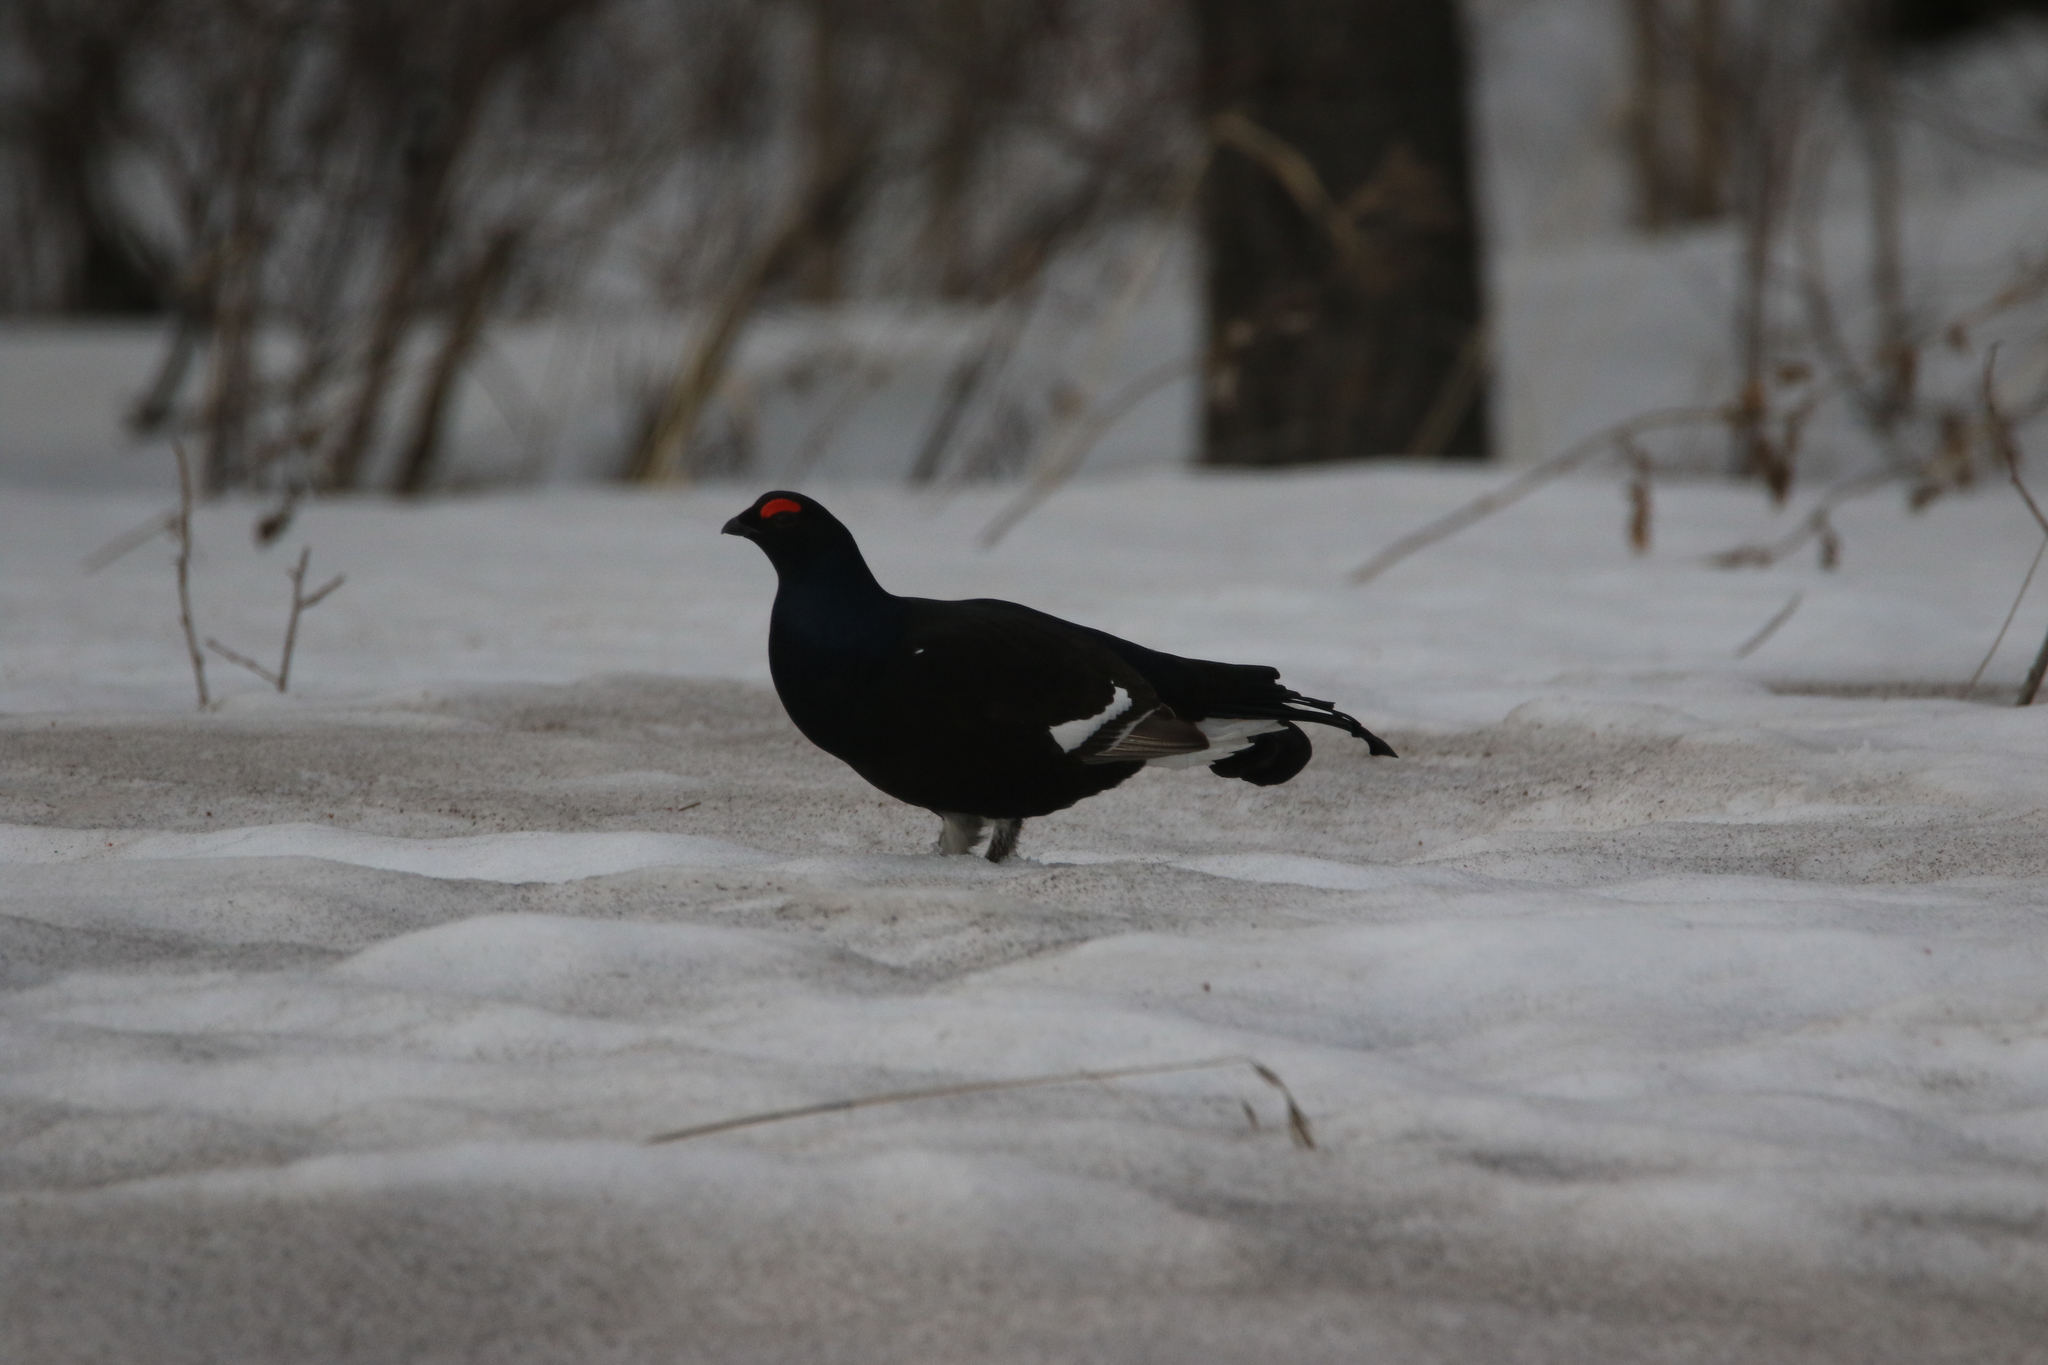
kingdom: Animalia
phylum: Chordata
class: Aves
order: Galliformes
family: Phasianidae
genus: Lyrurus
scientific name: Lyrurus tetrix
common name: Black grouse
